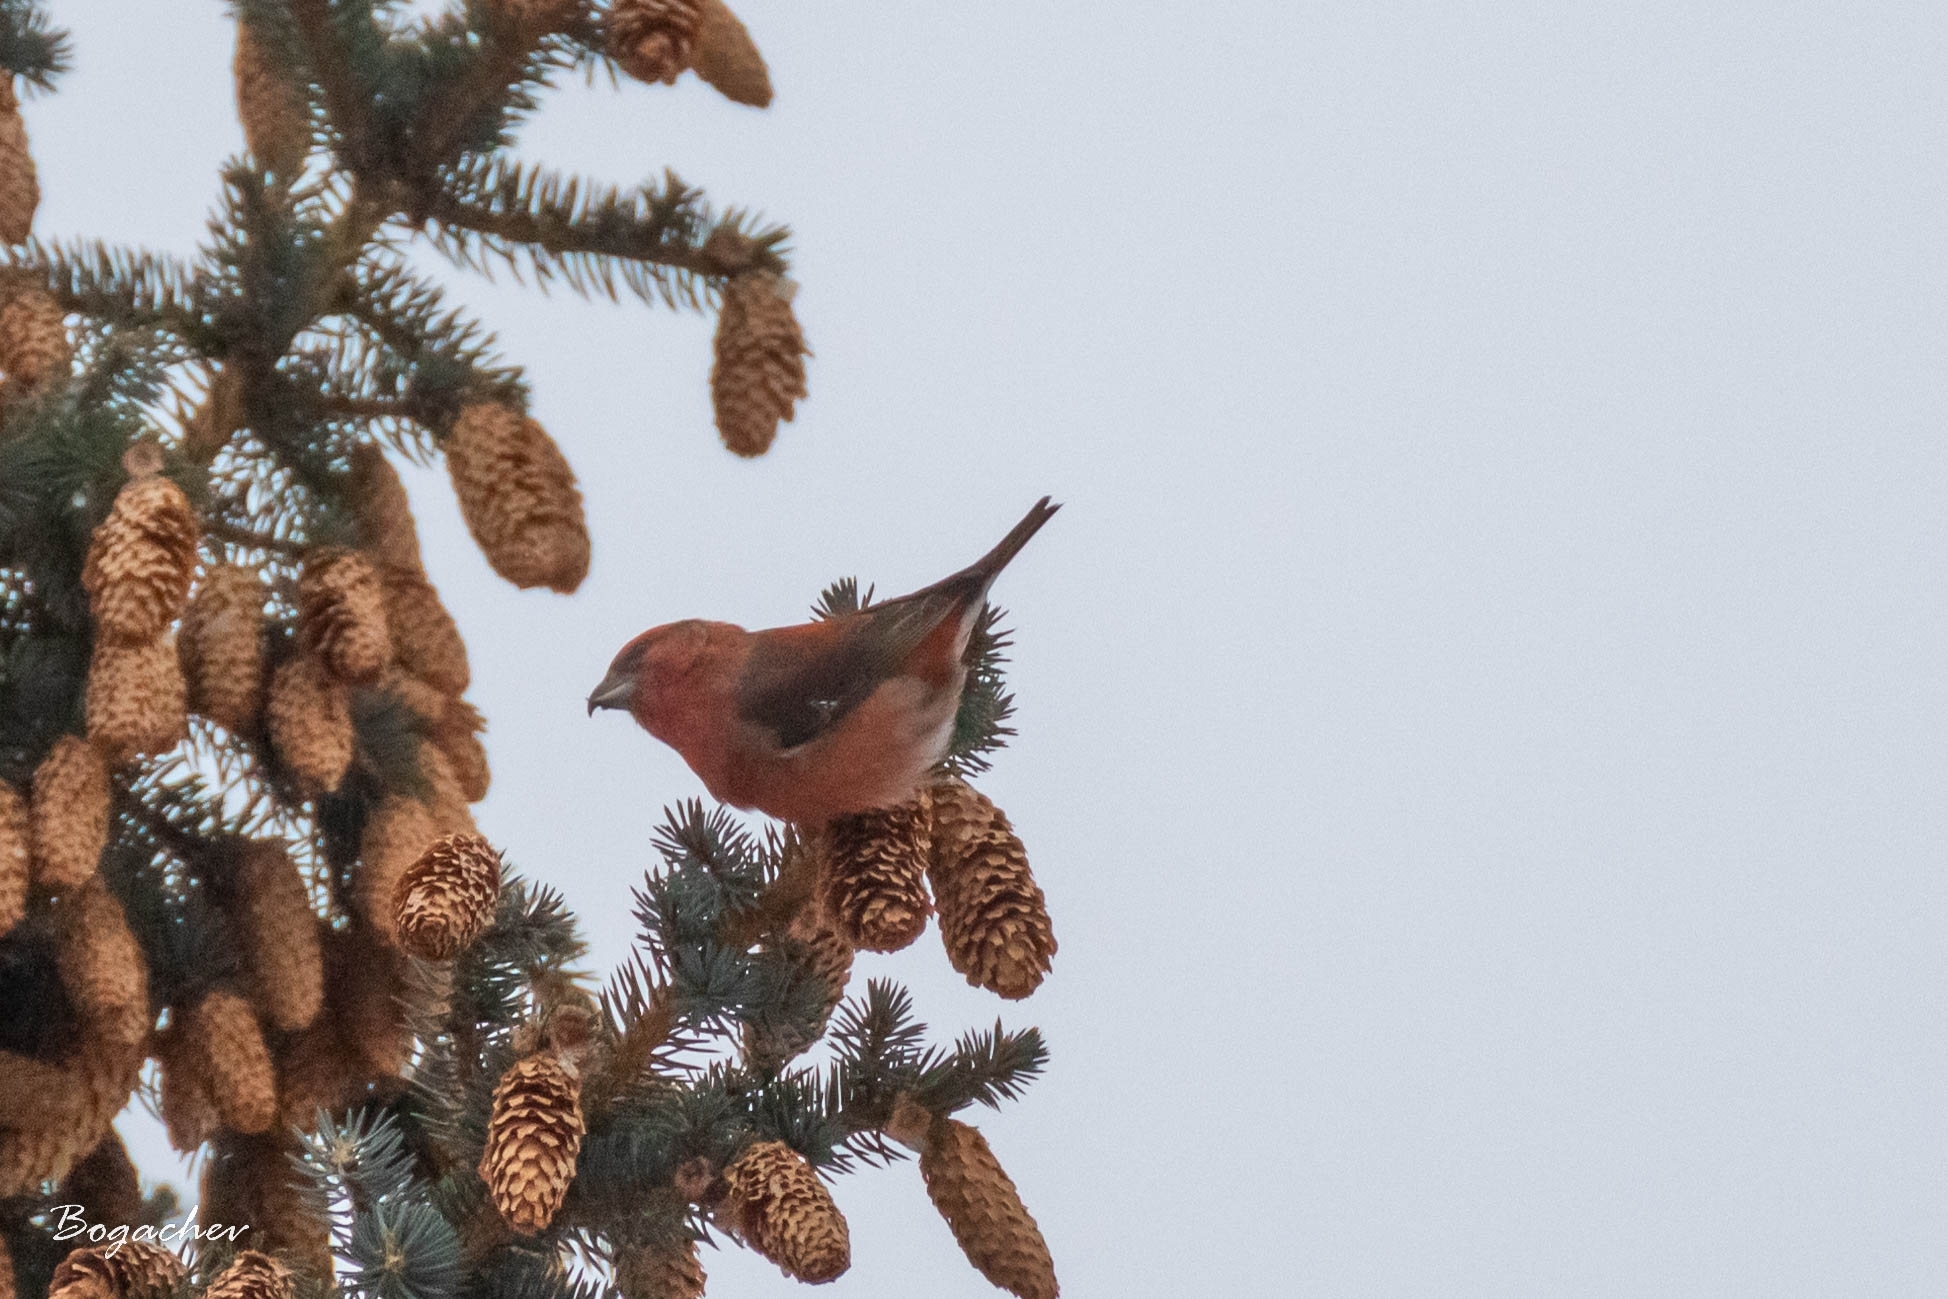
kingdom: Animalia
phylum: Chordata
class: Aves
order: Passeriformes
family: Fringillidae
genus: Loxia
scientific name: Loxia curvirostra
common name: Red crossbill
